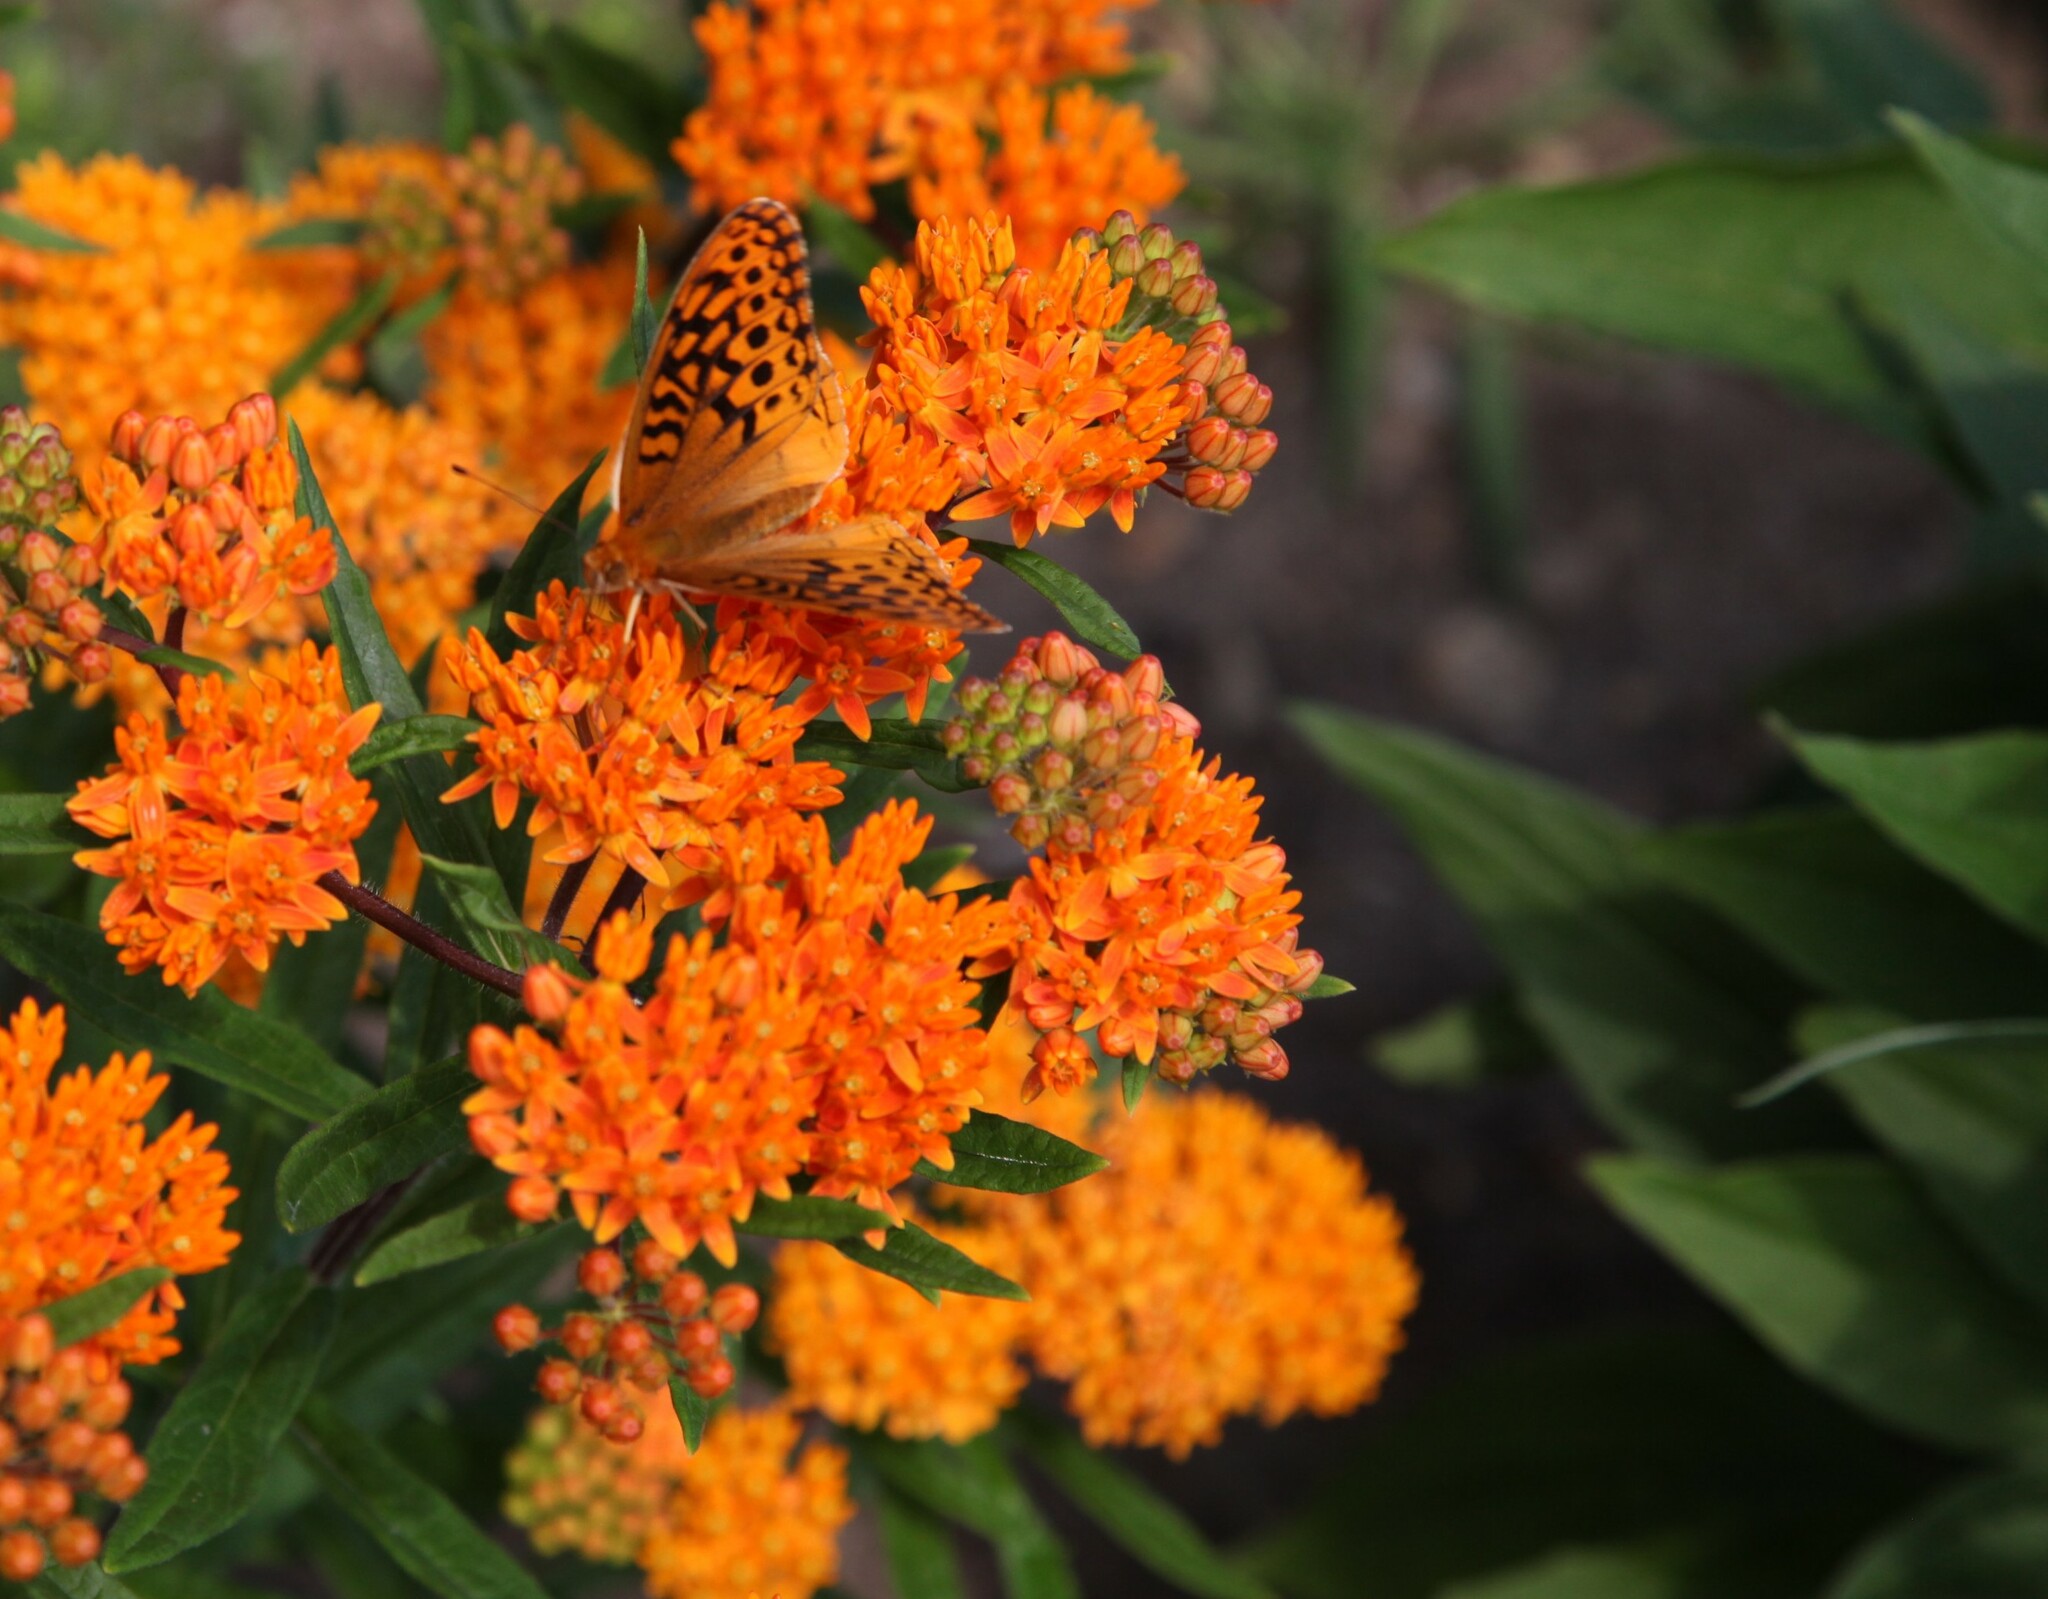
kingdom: Animalia
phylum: Arthropoda
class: Insecta
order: Lepidoptera
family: Nymphalidae
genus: Speyeria
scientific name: Speyeria cybele
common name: Great spangled fritillary
